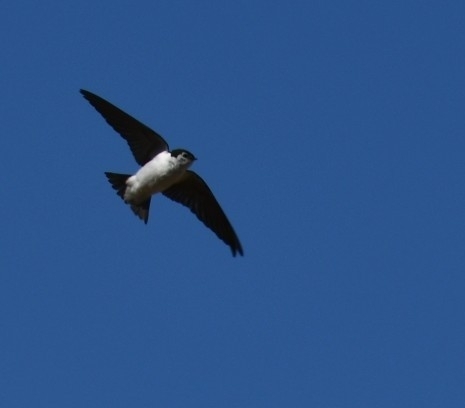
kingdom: Animalia
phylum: Chordata
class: Aves
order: Passeriformes
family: Hirundinidae
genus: Tachycineta
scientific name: Tachycineta thalassina
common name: Violet-green swallow
